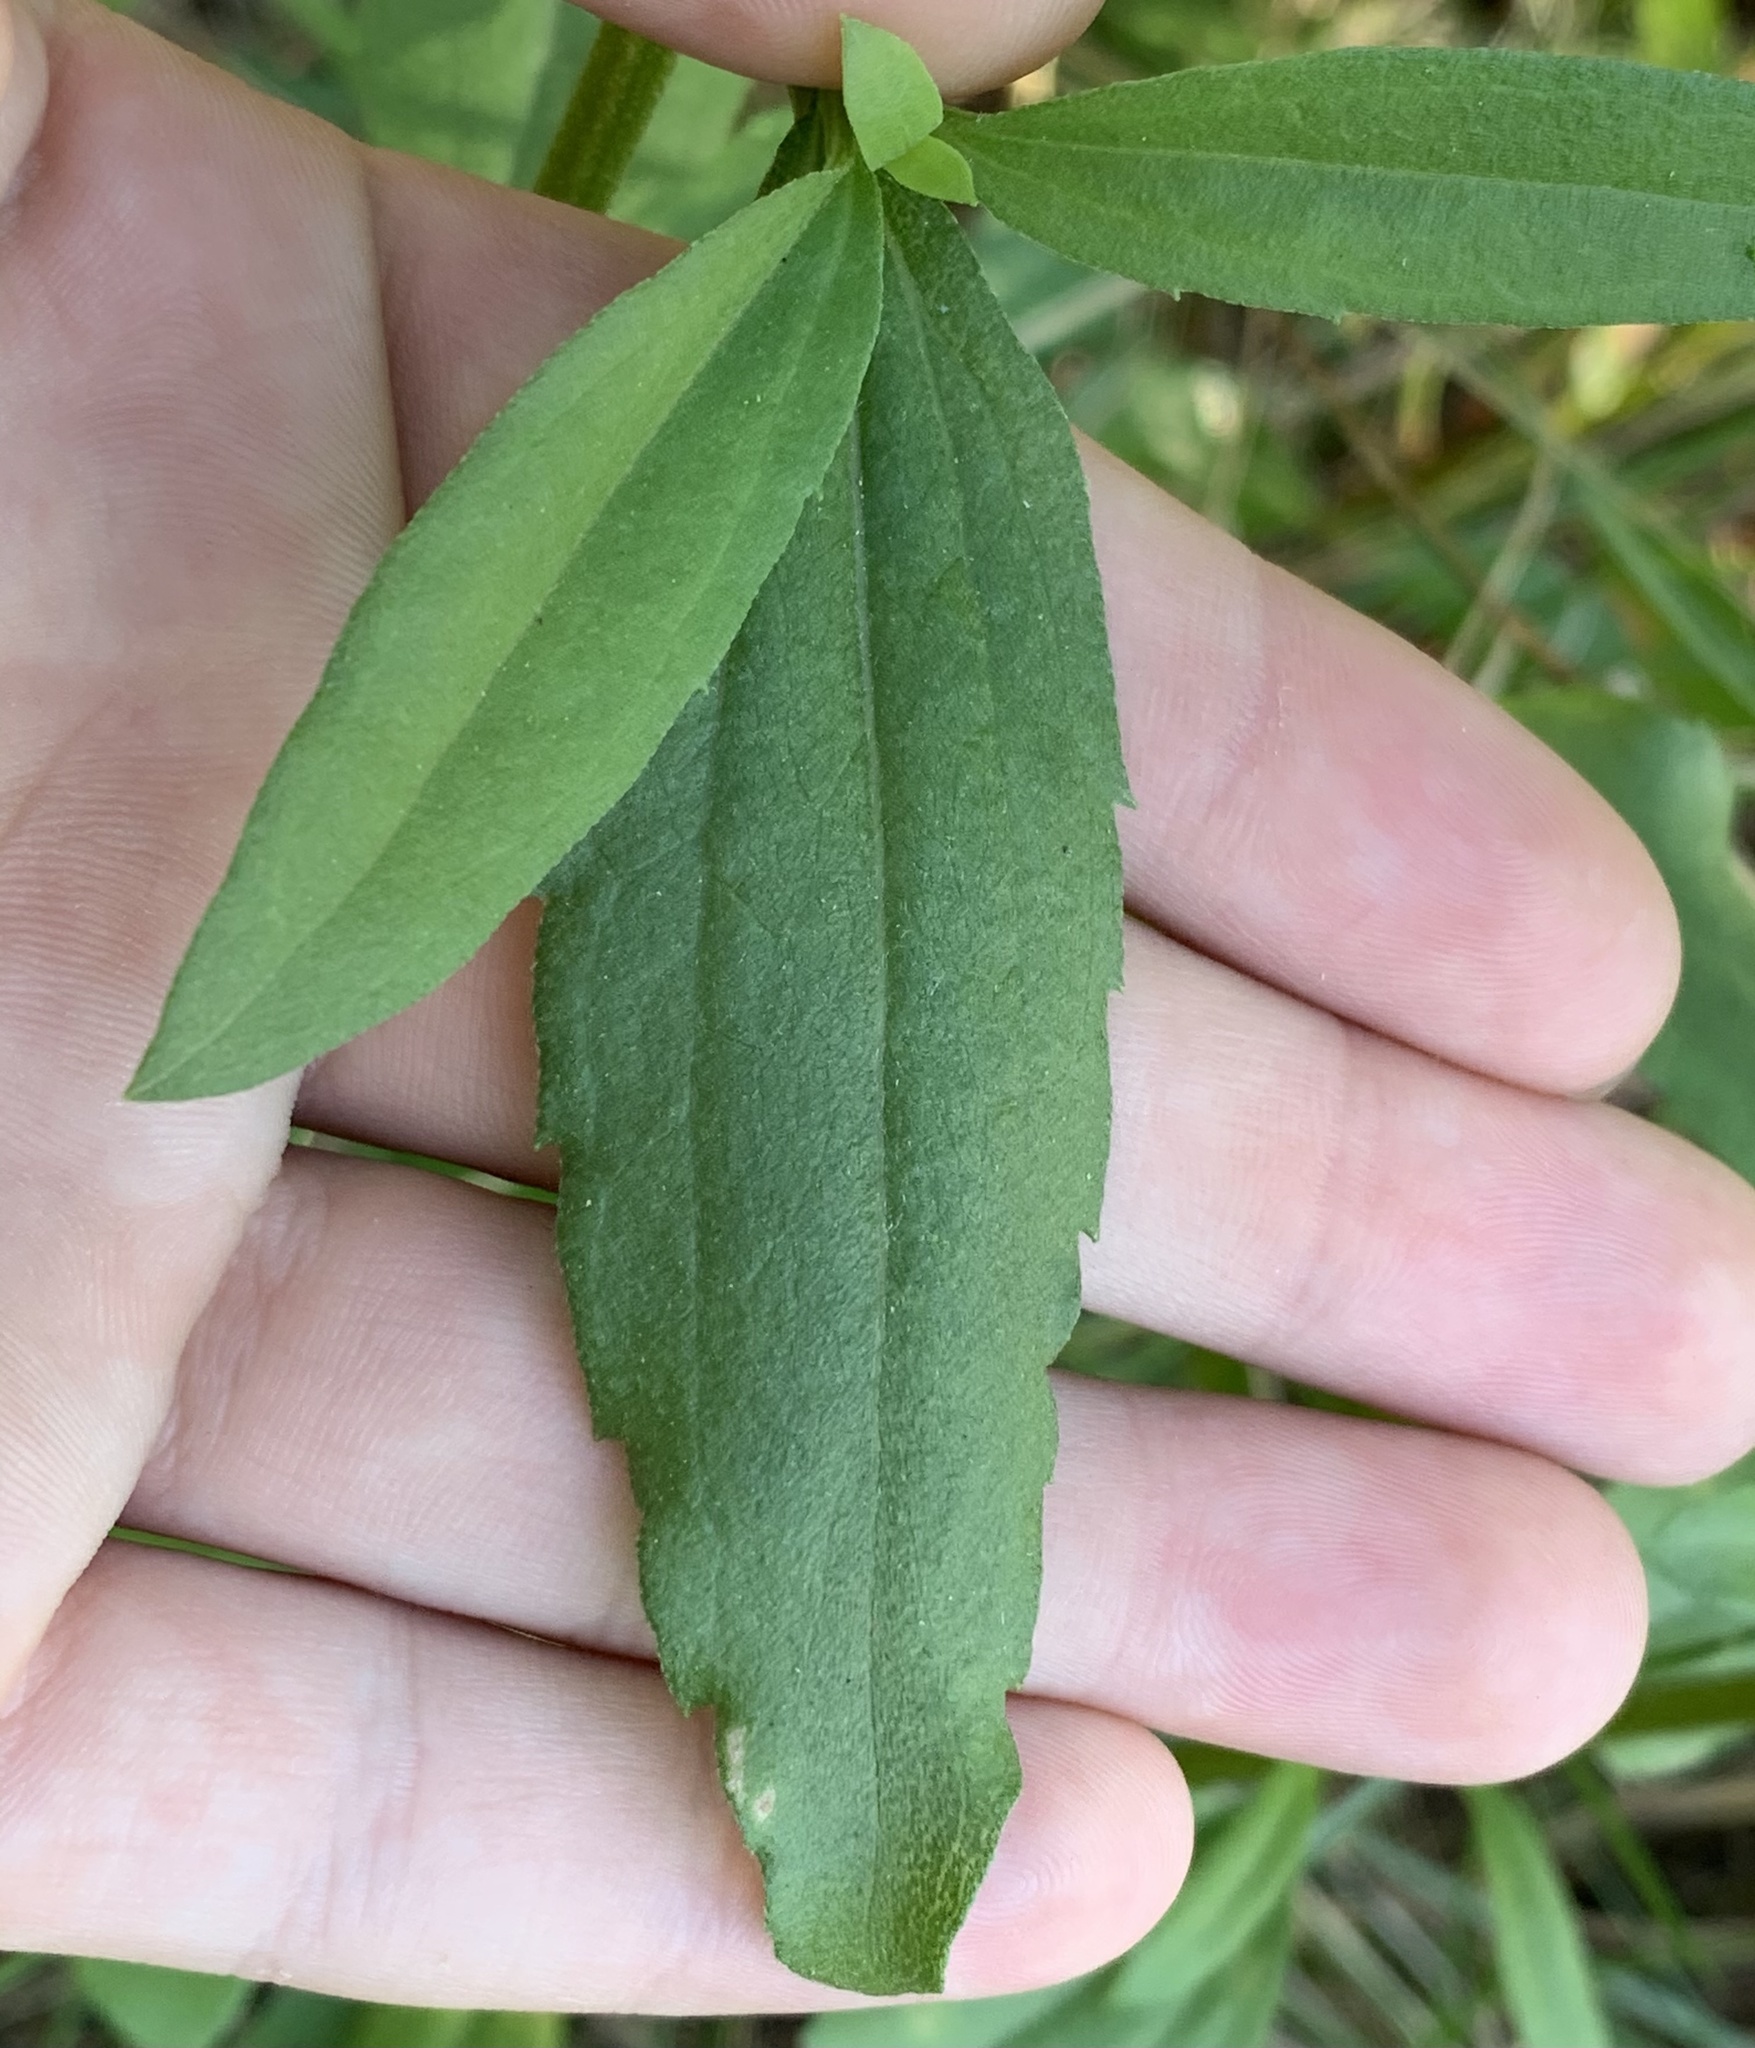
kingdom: Plantae
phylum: Tracheophyta
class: Magnoliopsida
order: Asterales
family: Asteraceae
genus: Chromolaena
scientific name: Chromolaena odorata
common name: Siamweed
